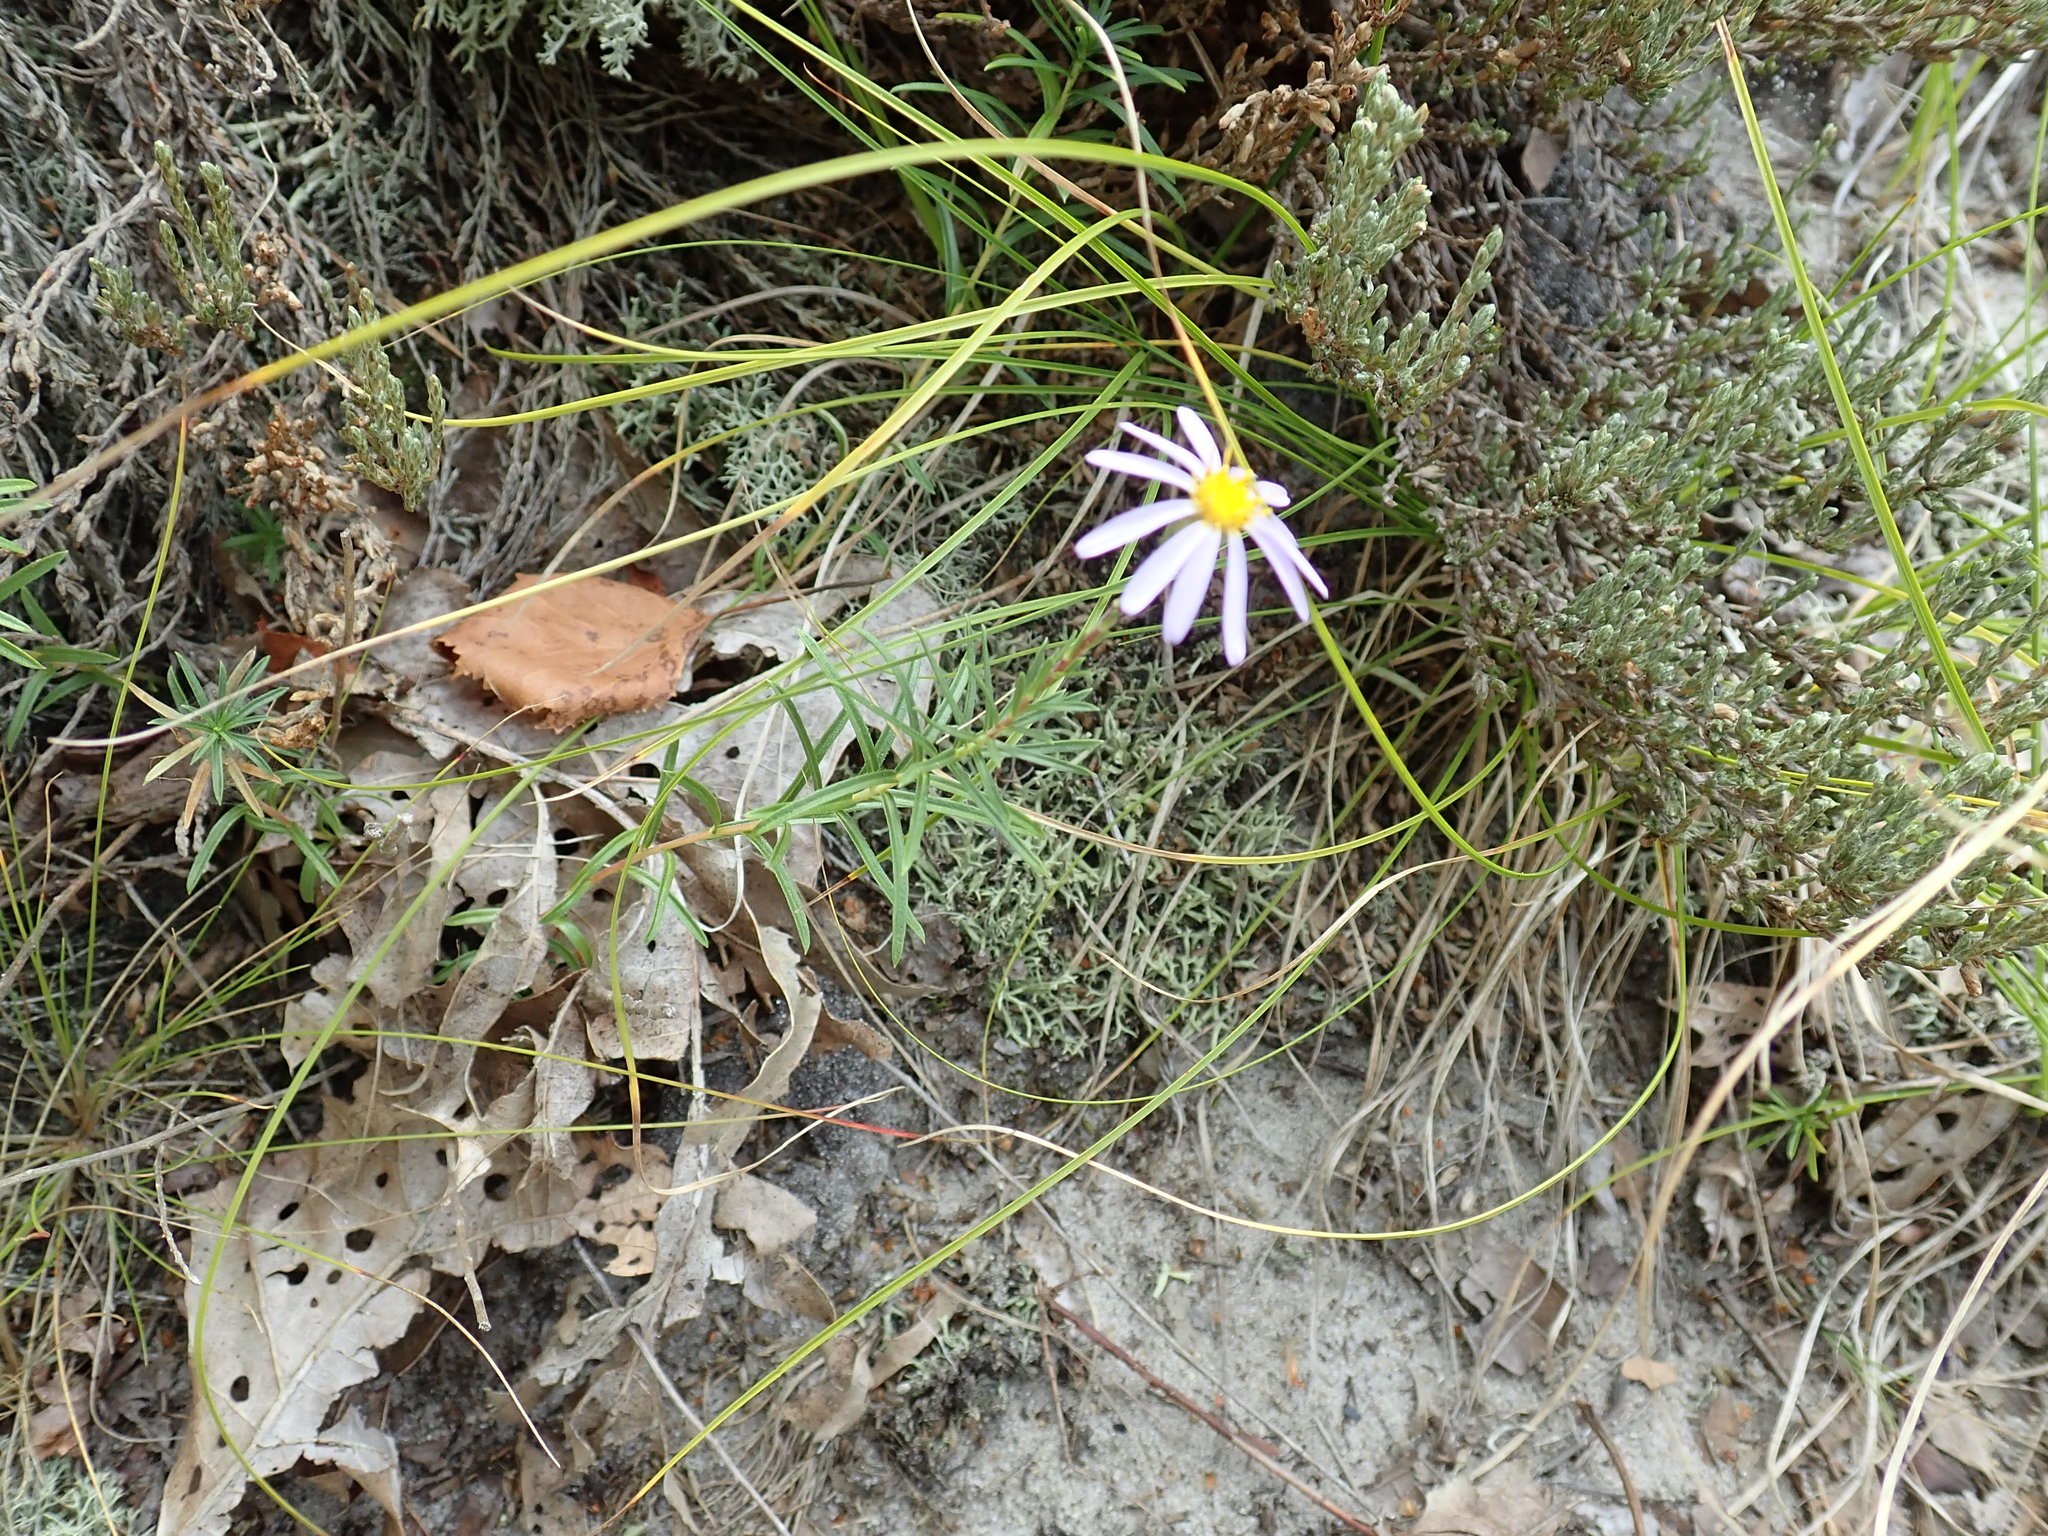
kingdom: Plantae
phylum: Tracheophyta
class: Magnoliopsida
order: Asterales
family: Asteraceae
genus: Ionactis
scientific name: Ionactis linariifolia
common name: Flax-leaf aster
